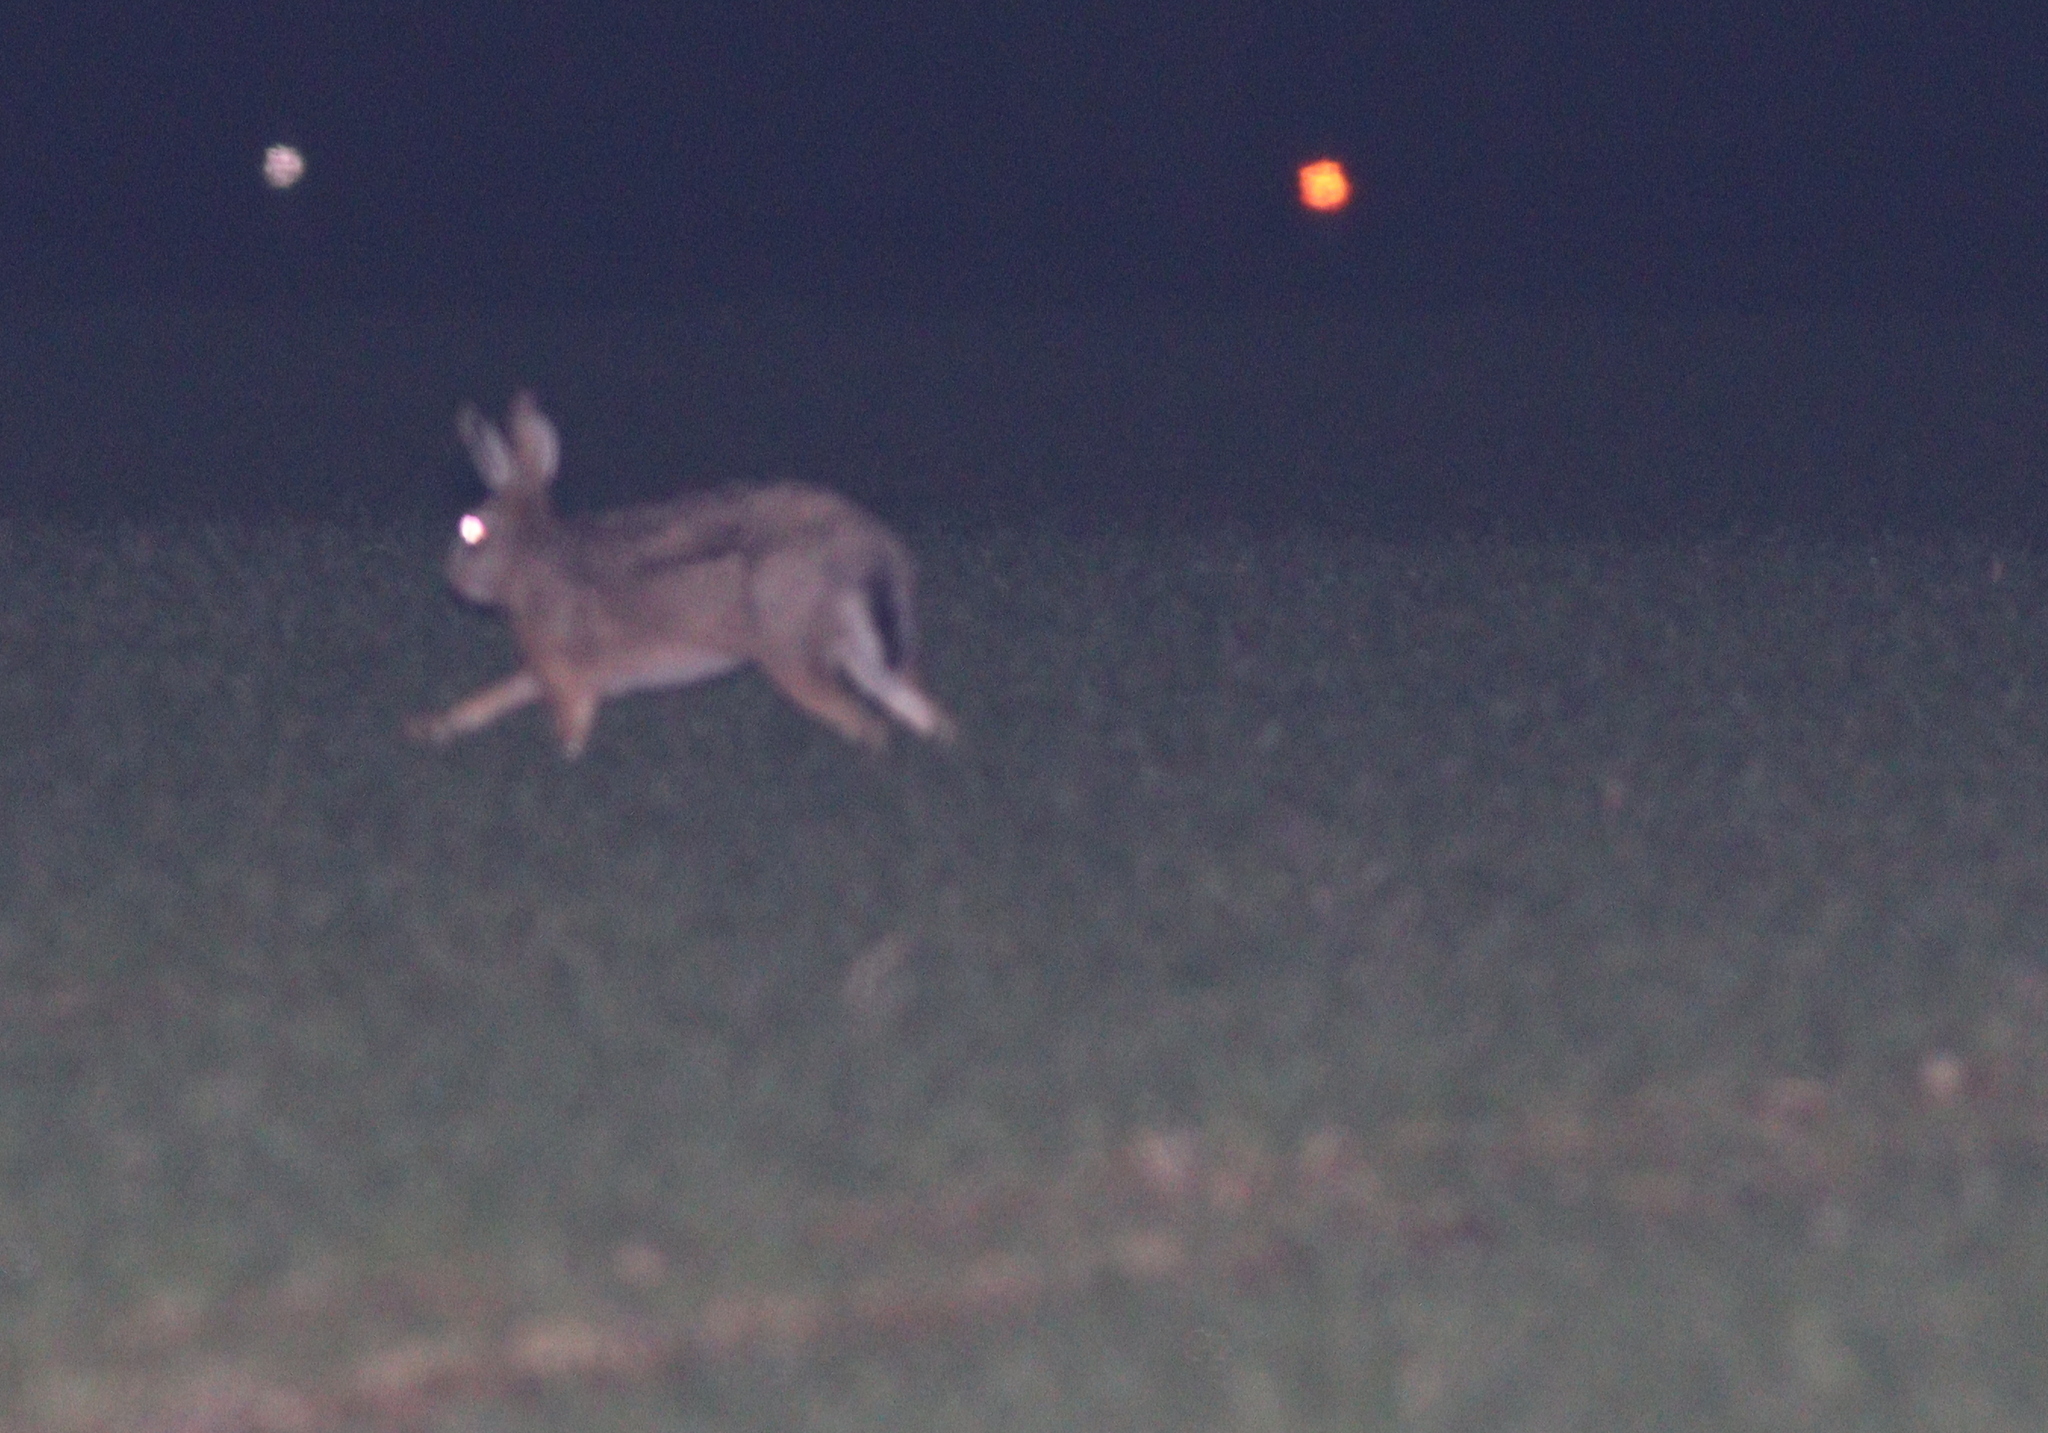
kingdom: Animalia
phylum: Chordata
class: Mammalia
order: Lagomorpha
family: Leporidae
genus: Lepus
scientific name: Lepus europaeus
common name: European hare
